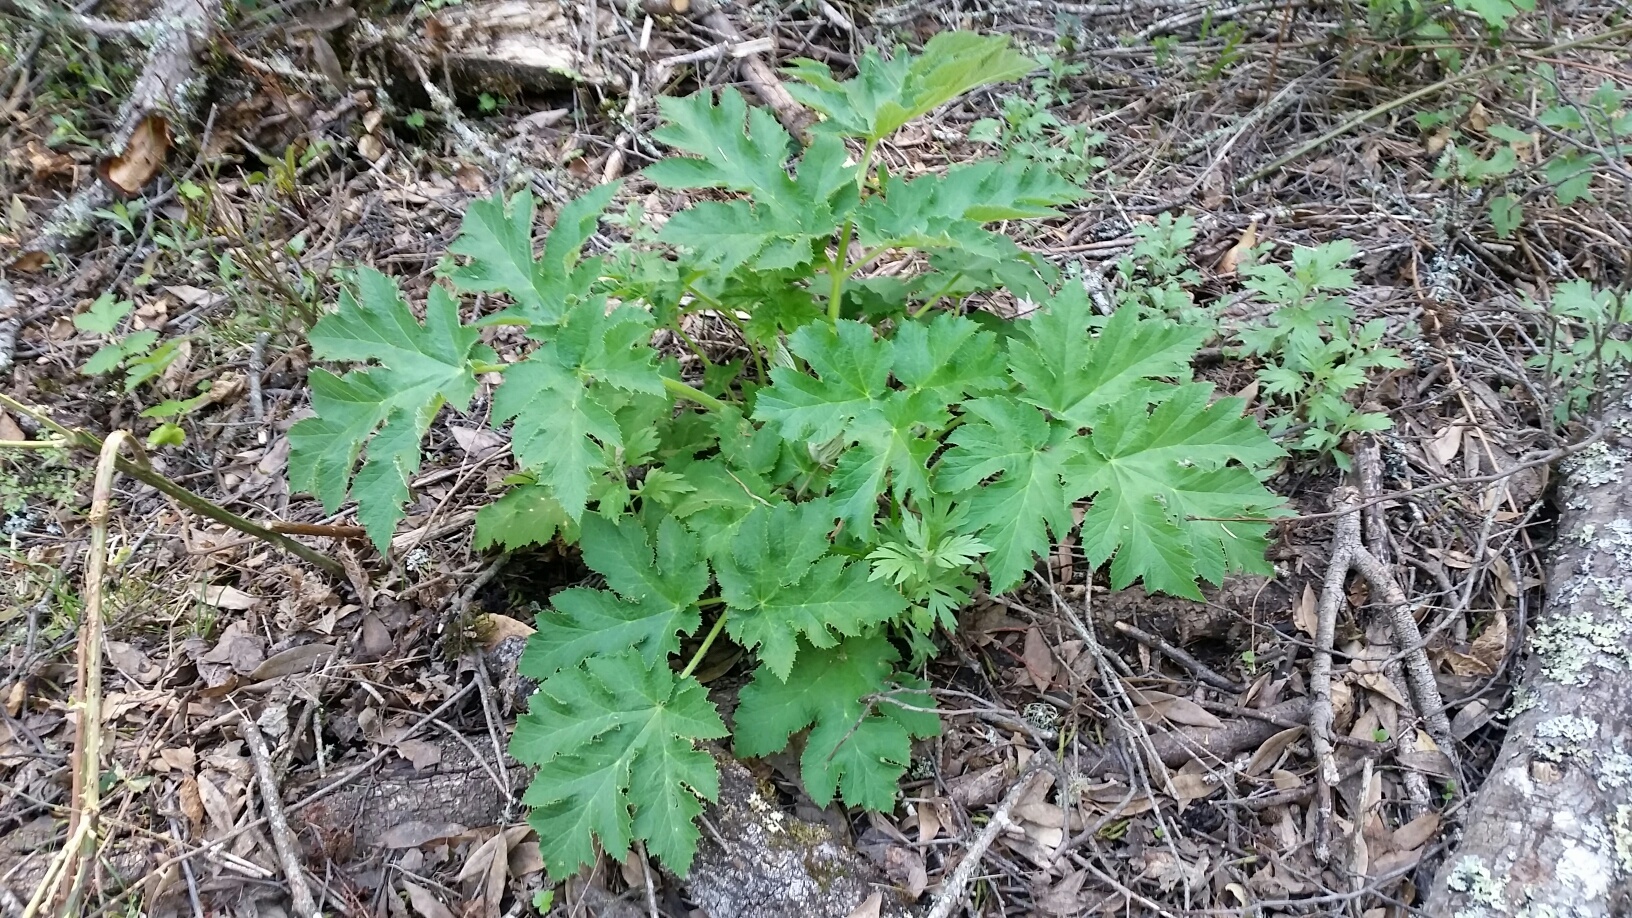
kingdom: Plantae
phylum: Tracheophyta
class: Magnoliopsida
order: Apiales
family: Apiaceae
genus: Heracleum
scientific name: Heracleum maximum
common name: American cow parsnip
